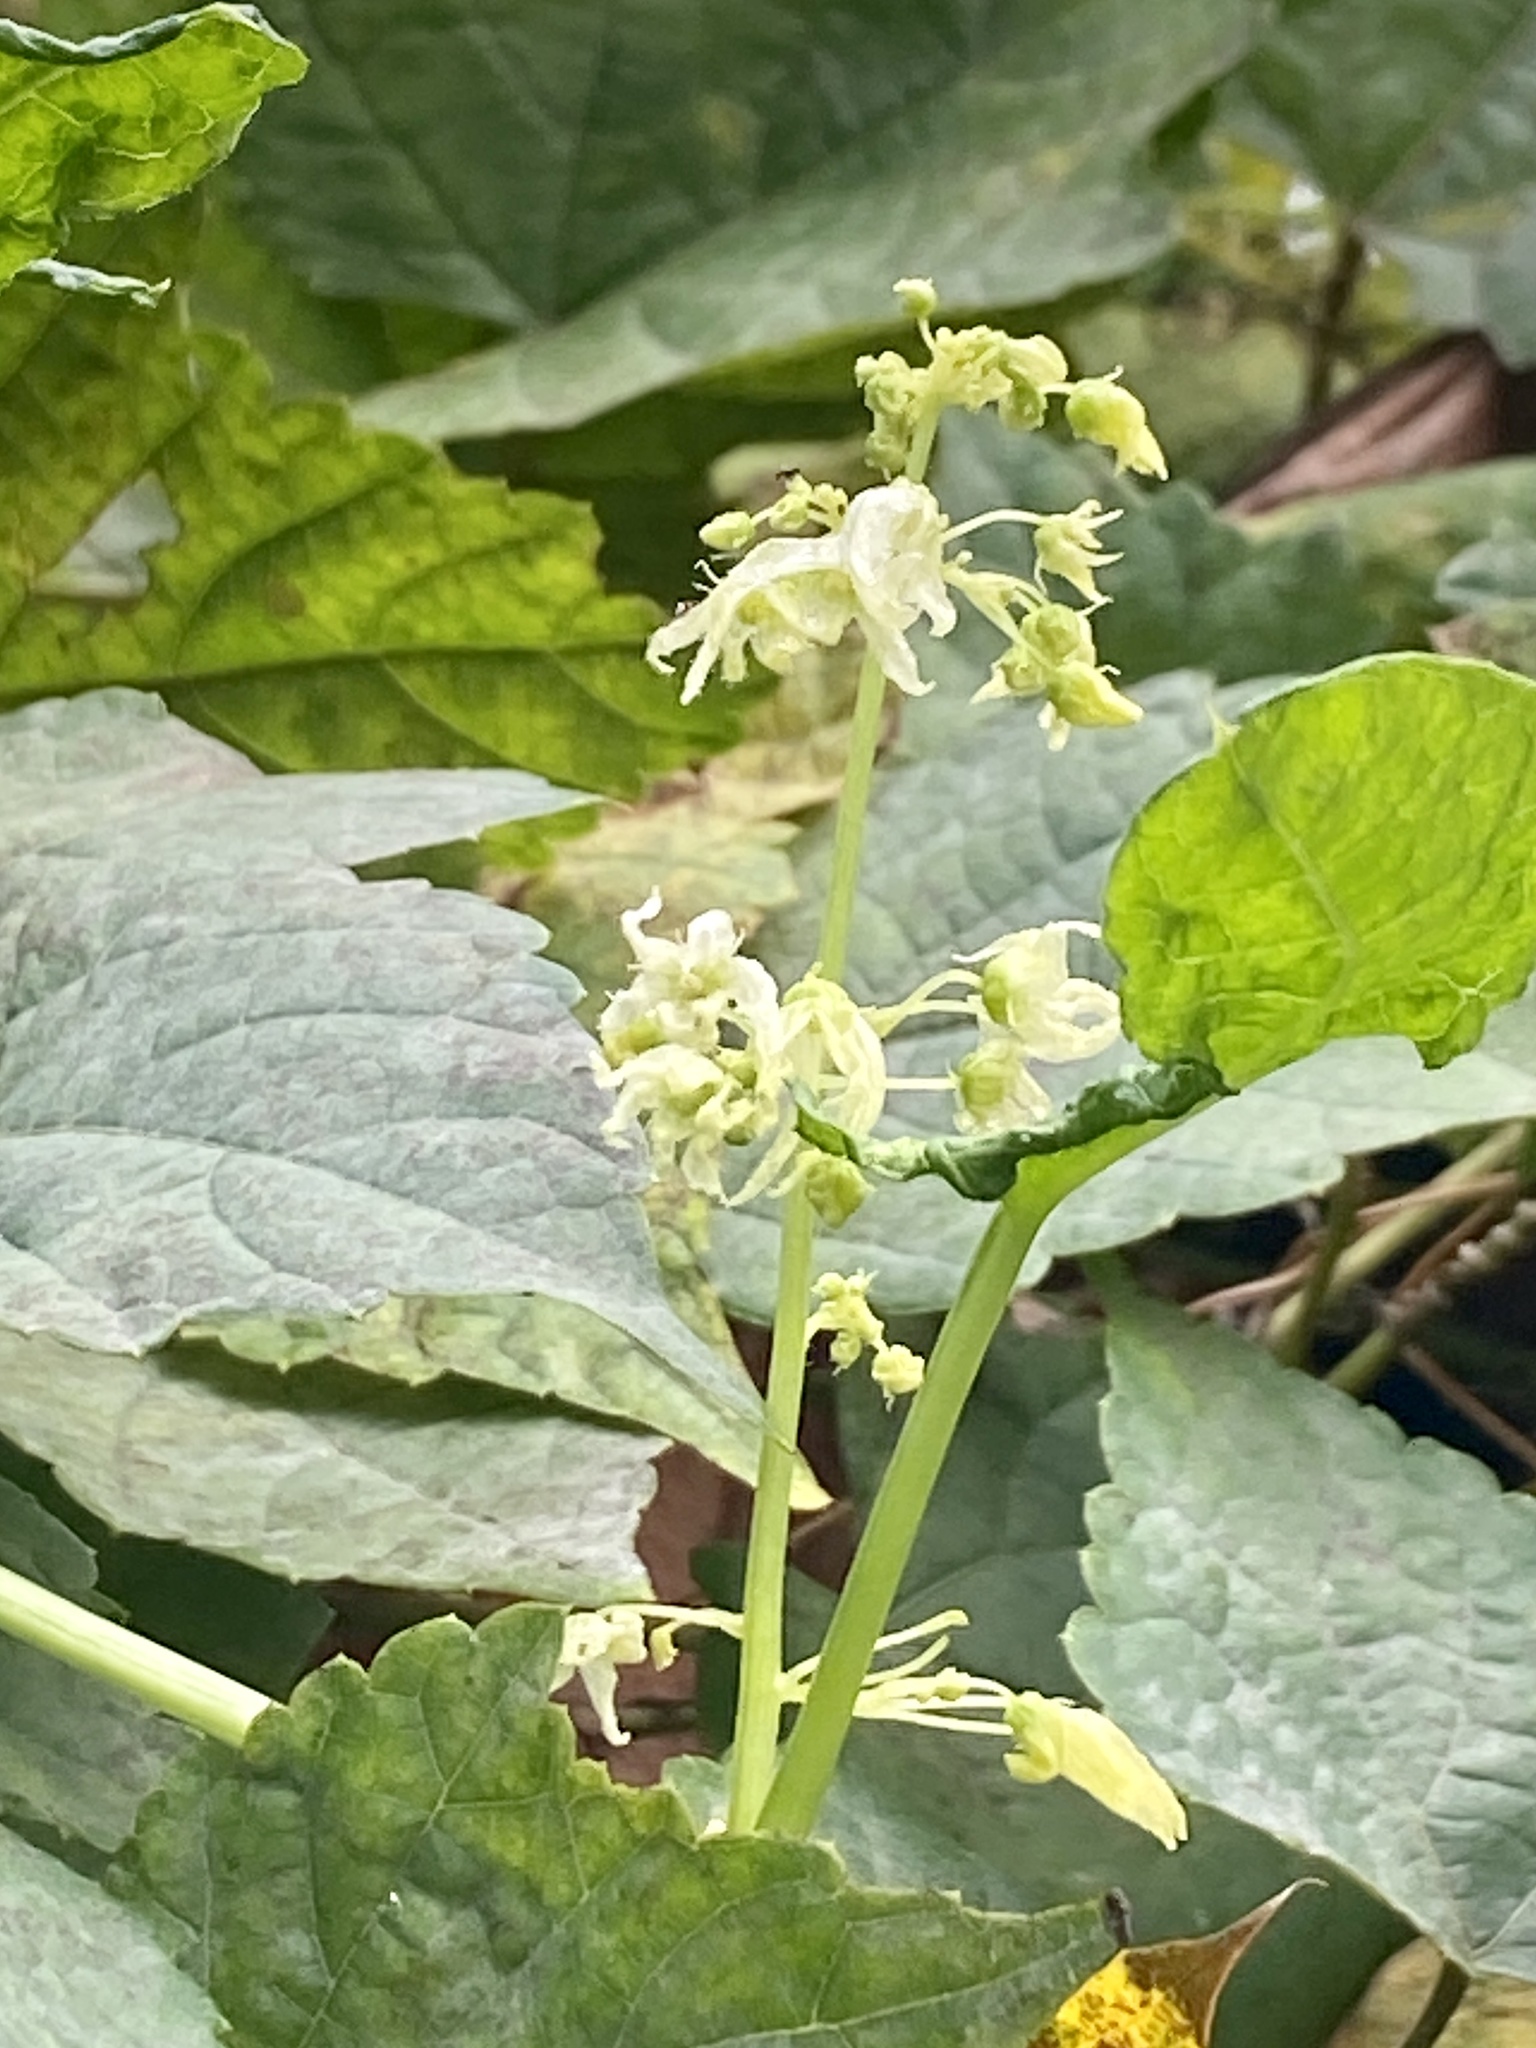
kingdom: Plantae
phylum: Tracheophyta
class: Magnoliopsida
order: Cucurbitales
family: Cucurbitaceae
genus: Echinocystis
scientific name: Echinocystis lobata
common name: Wild cucumber
